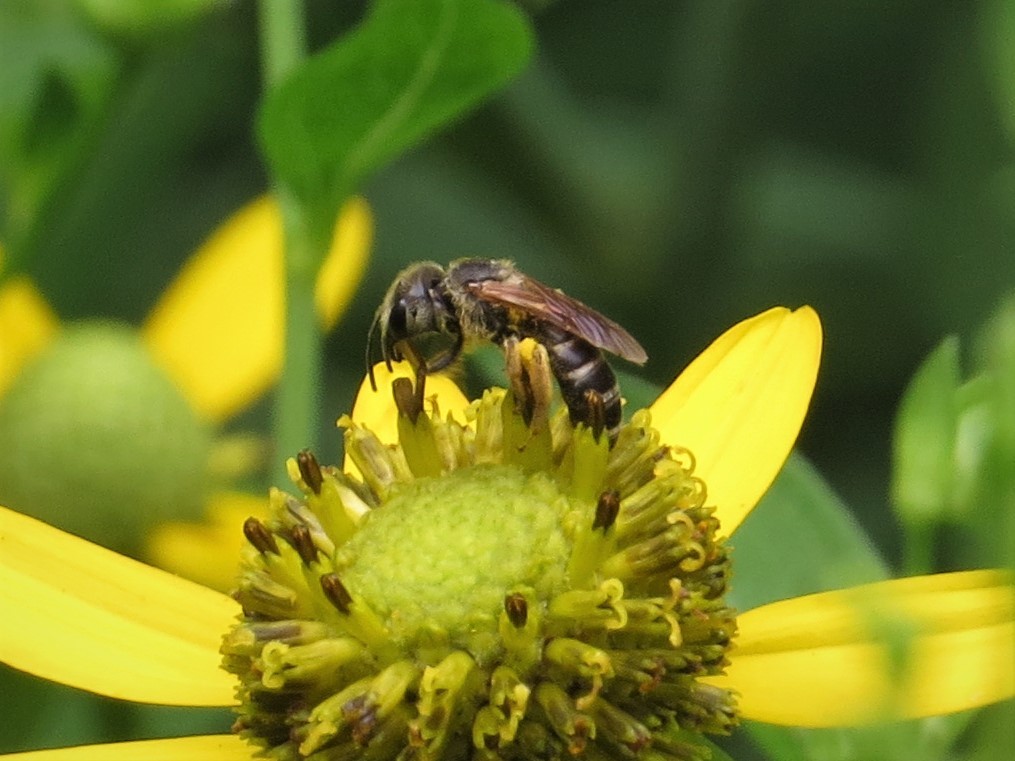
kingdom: Animalia
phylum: Arthropoda
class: Insecta
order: Hymenoptera
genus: Odontalictus
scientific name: Odontalictus
